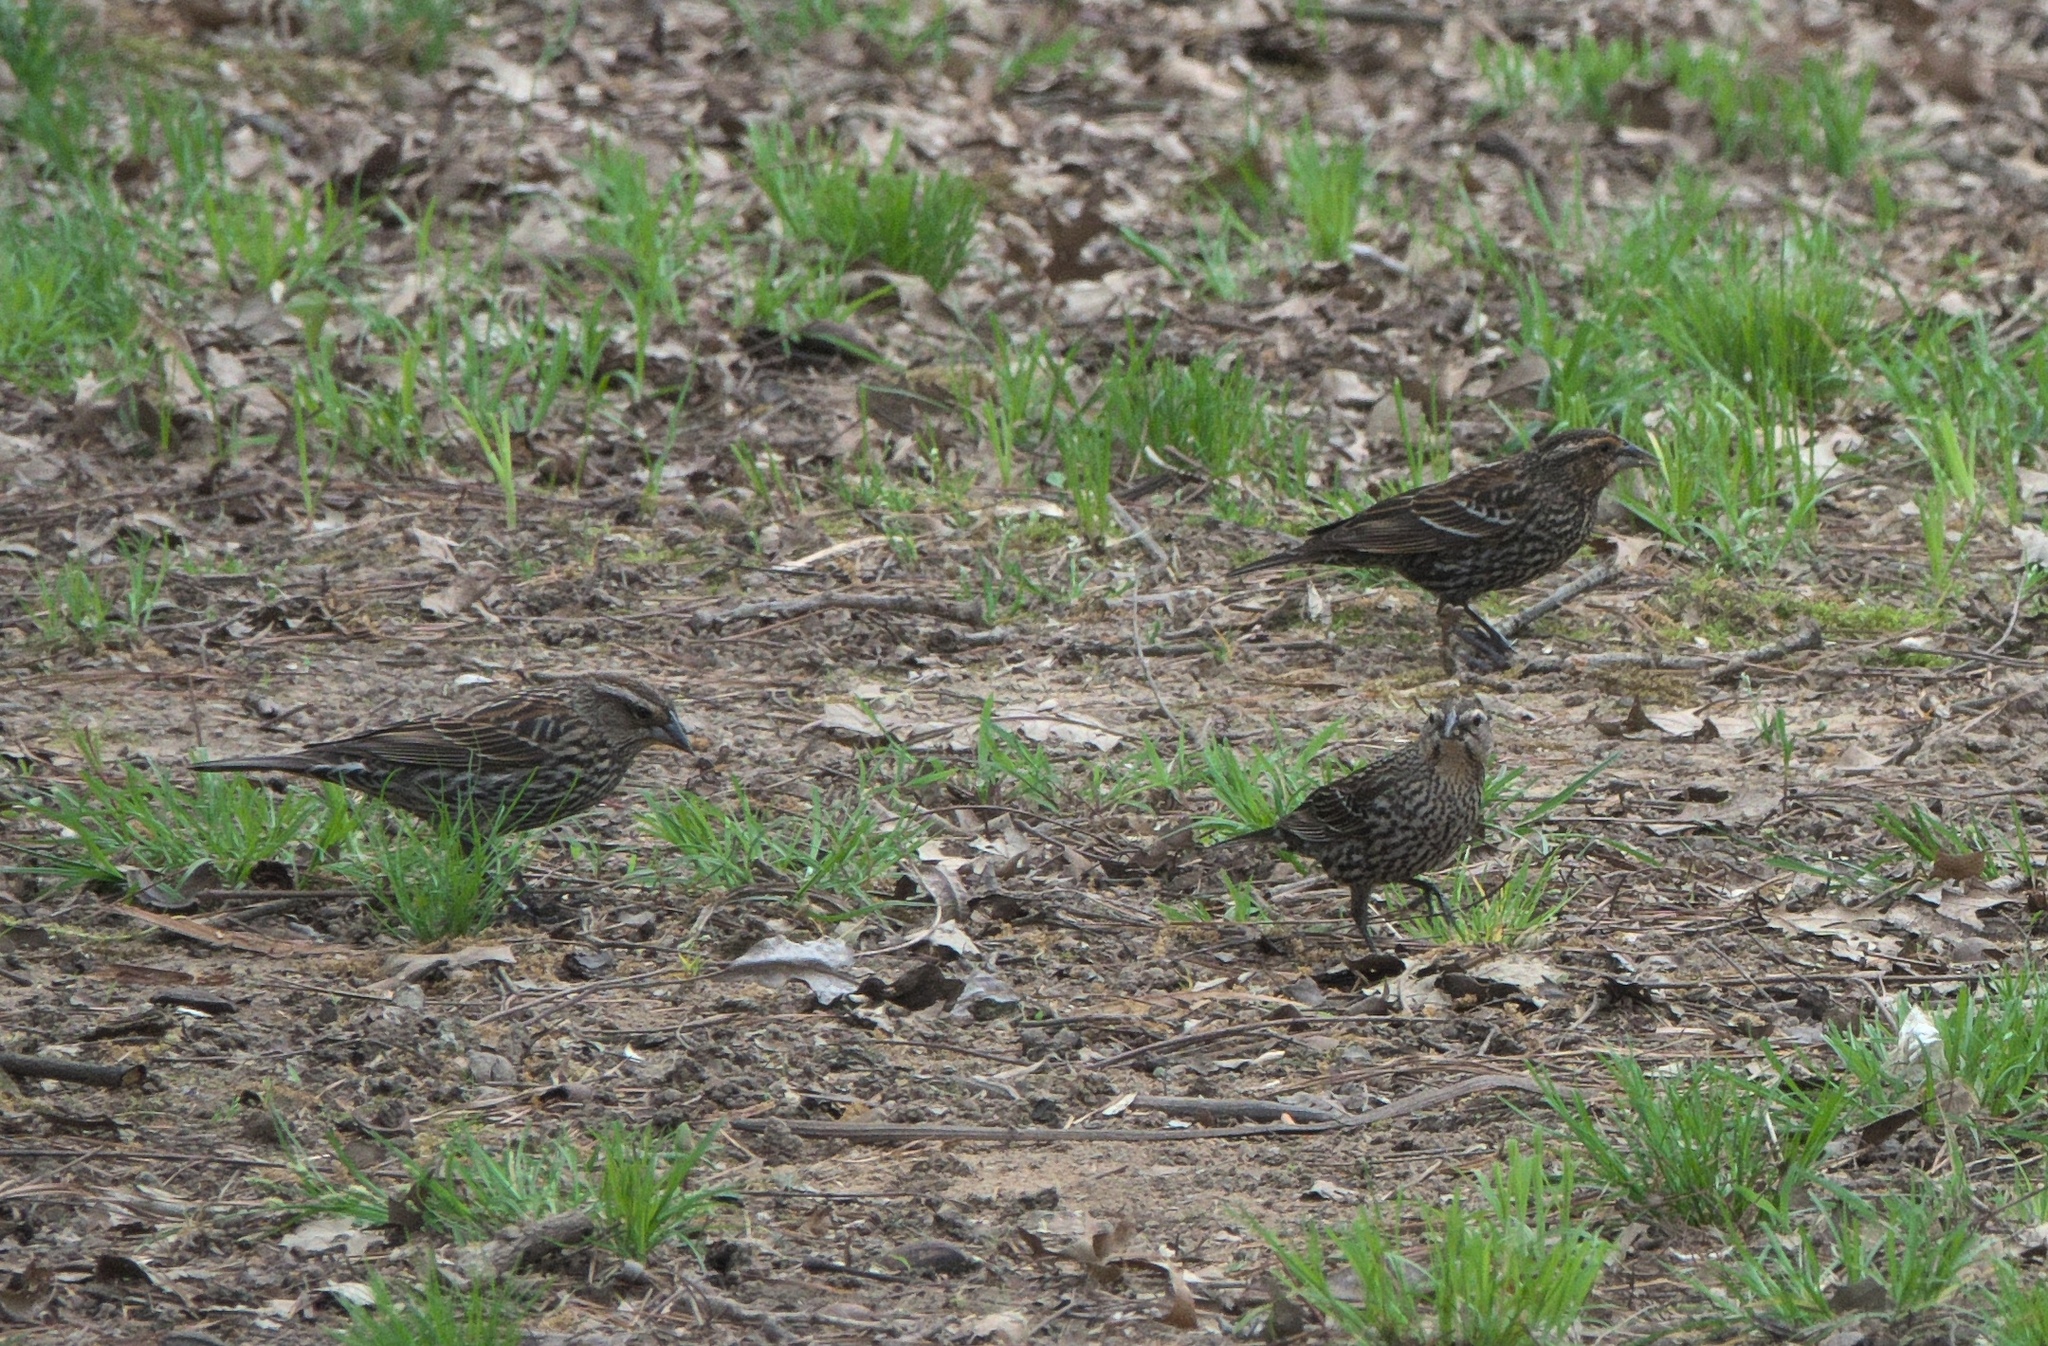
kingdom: Animalia
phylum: Chordata
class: Aves
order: Passeriformes
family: Icteridae
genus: Agelaius
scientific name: Agelaius phoeniceus
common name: Red-winged blackbird
